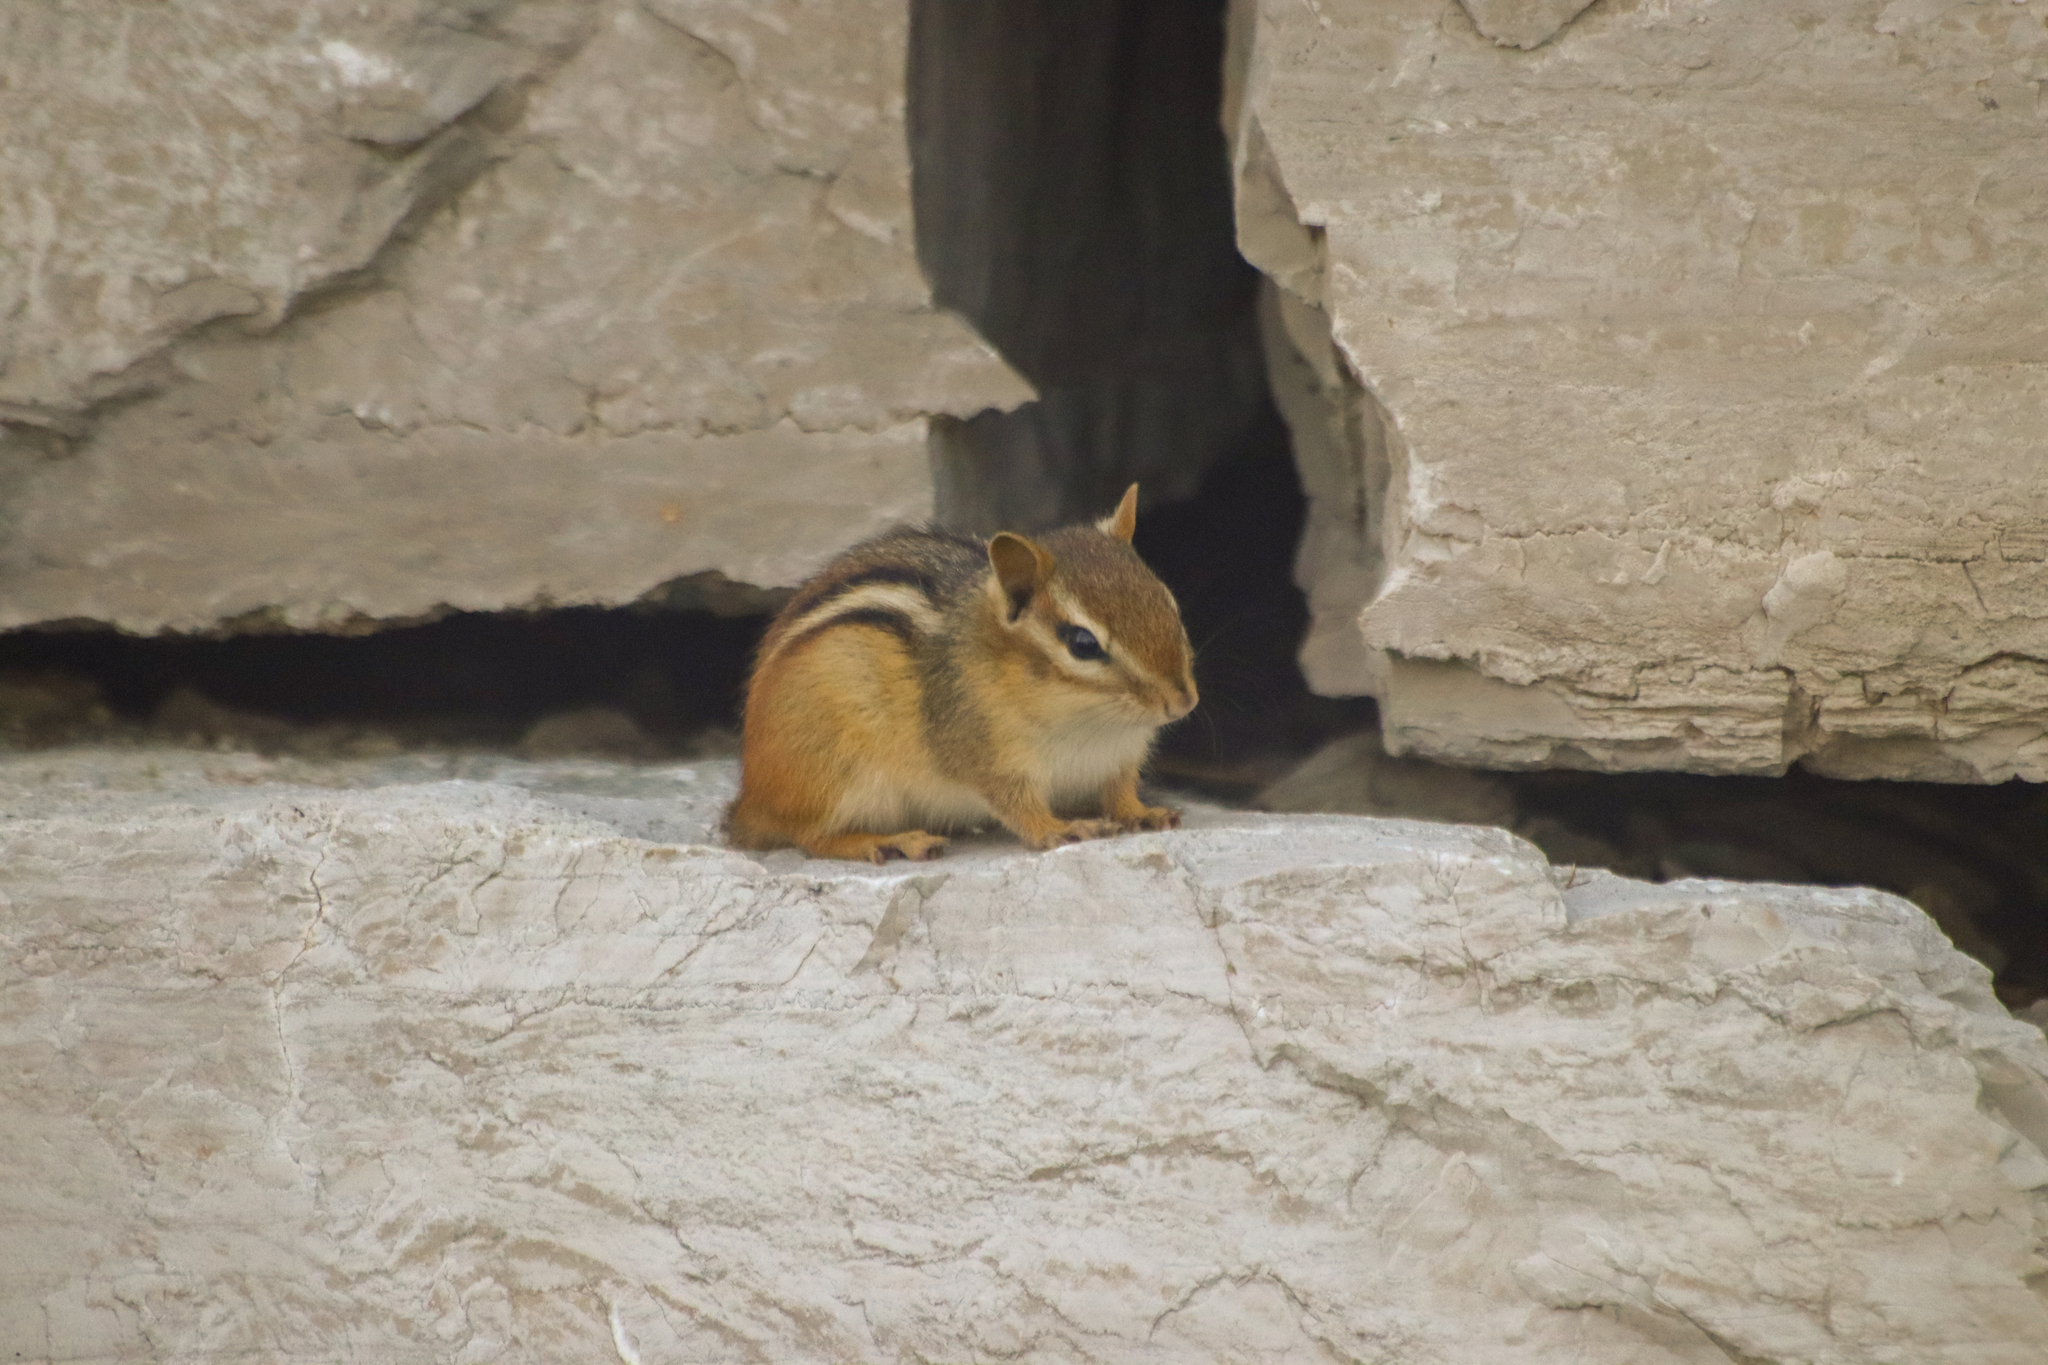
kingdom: Animalia
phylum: Chordata
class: Mammalia
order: Rodentia
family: Sciuridae
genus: Tamias
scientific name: Tamias striatus
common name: Eastern chipmunk
